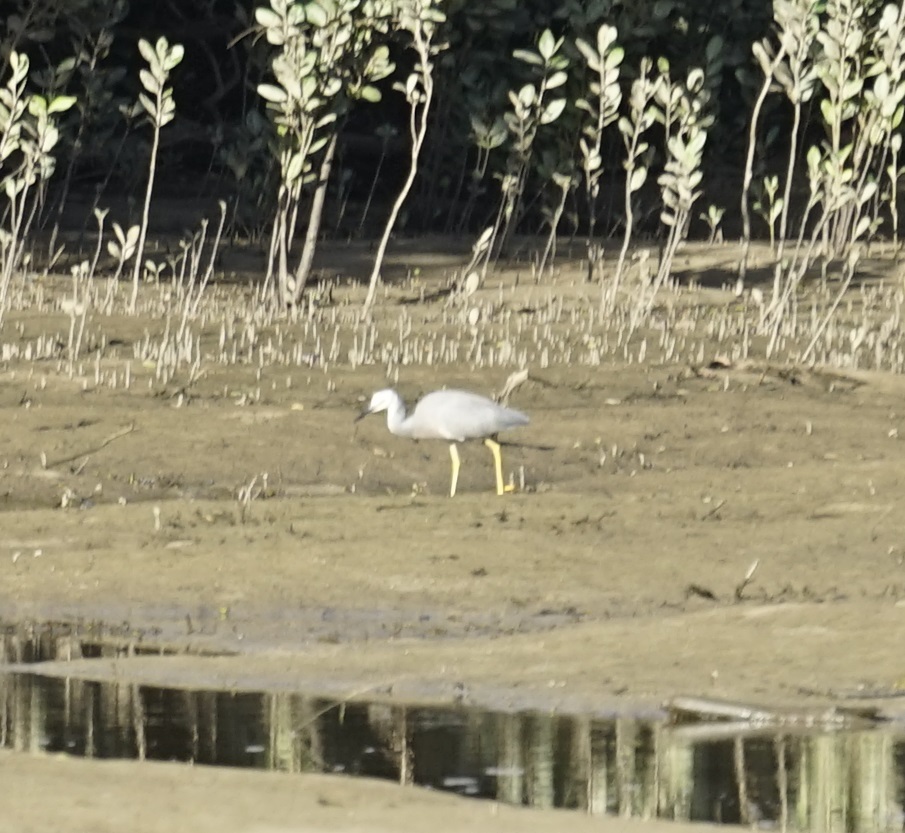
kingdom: Animalia
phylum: Chordata
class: Aves
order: Pelecaniformes
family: Ardeidae
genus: Egretta
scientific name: Egretta novaehollandiae
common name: White-faced heron
